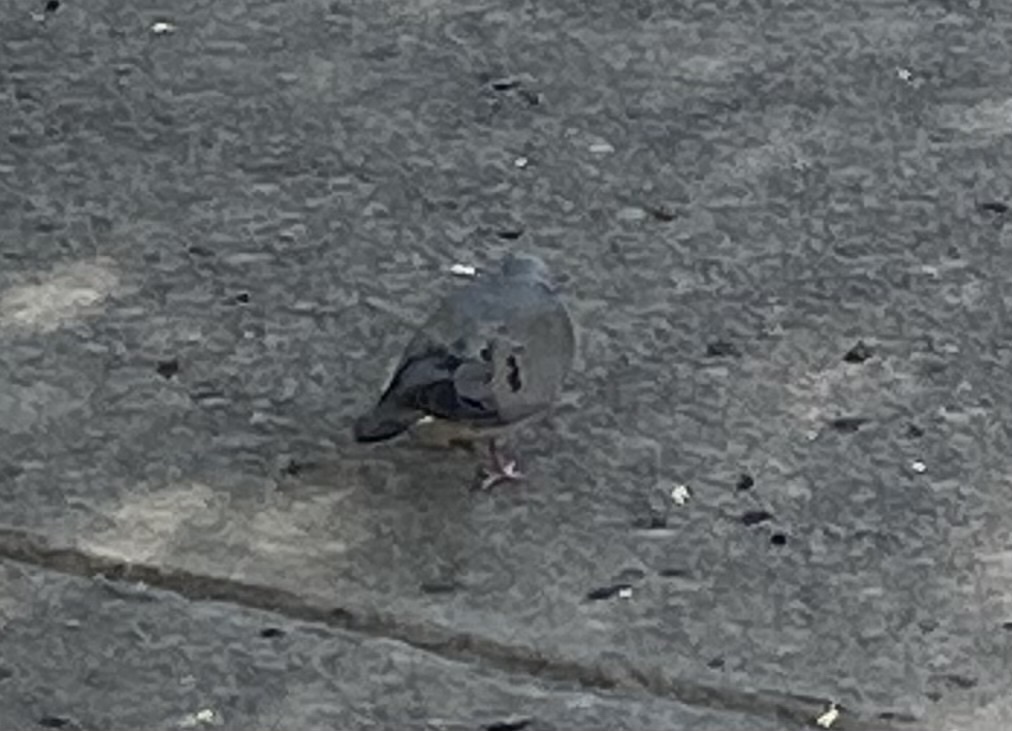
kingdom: Animalia
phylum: Chordata
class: Aves
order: Columbiformes
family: Columbidae
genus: Zenaida
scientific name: Zenaida auriculata
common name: Eared dove
